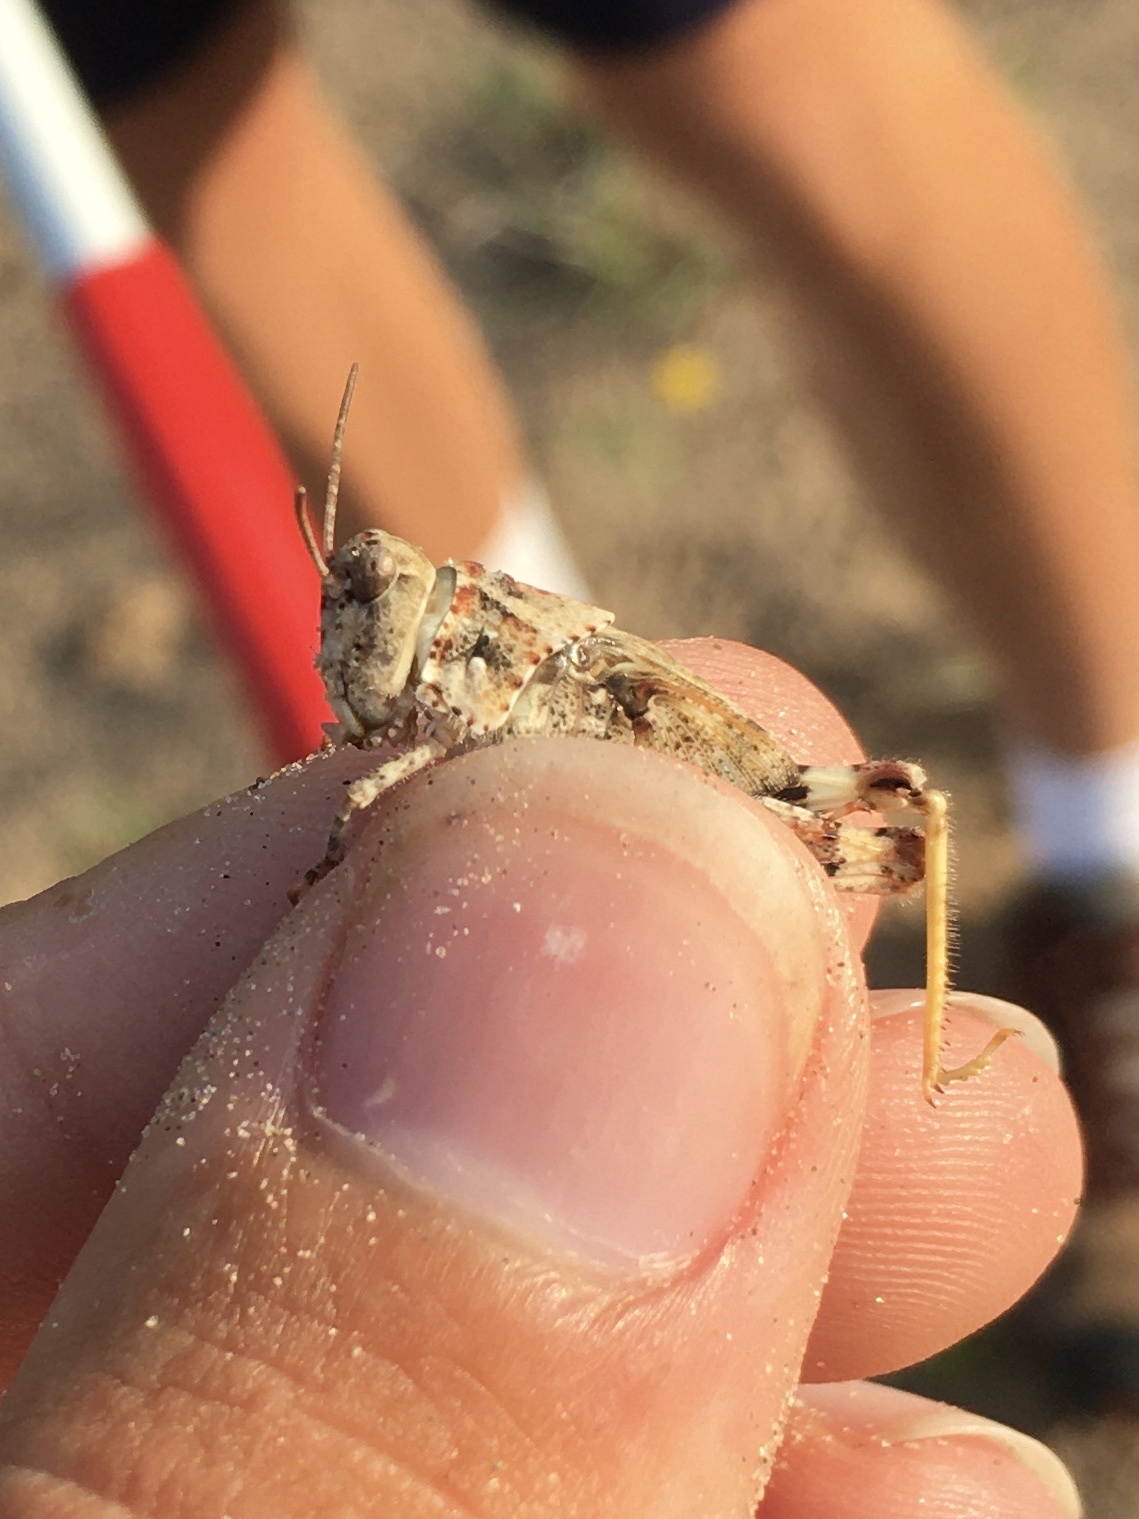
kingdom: Animalia
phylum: Arthropoda
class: Insecta
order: Orthoptera
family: Acrididae
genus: Trimerotropis
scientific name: Trimerotropis maritima
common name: Seaside locust
